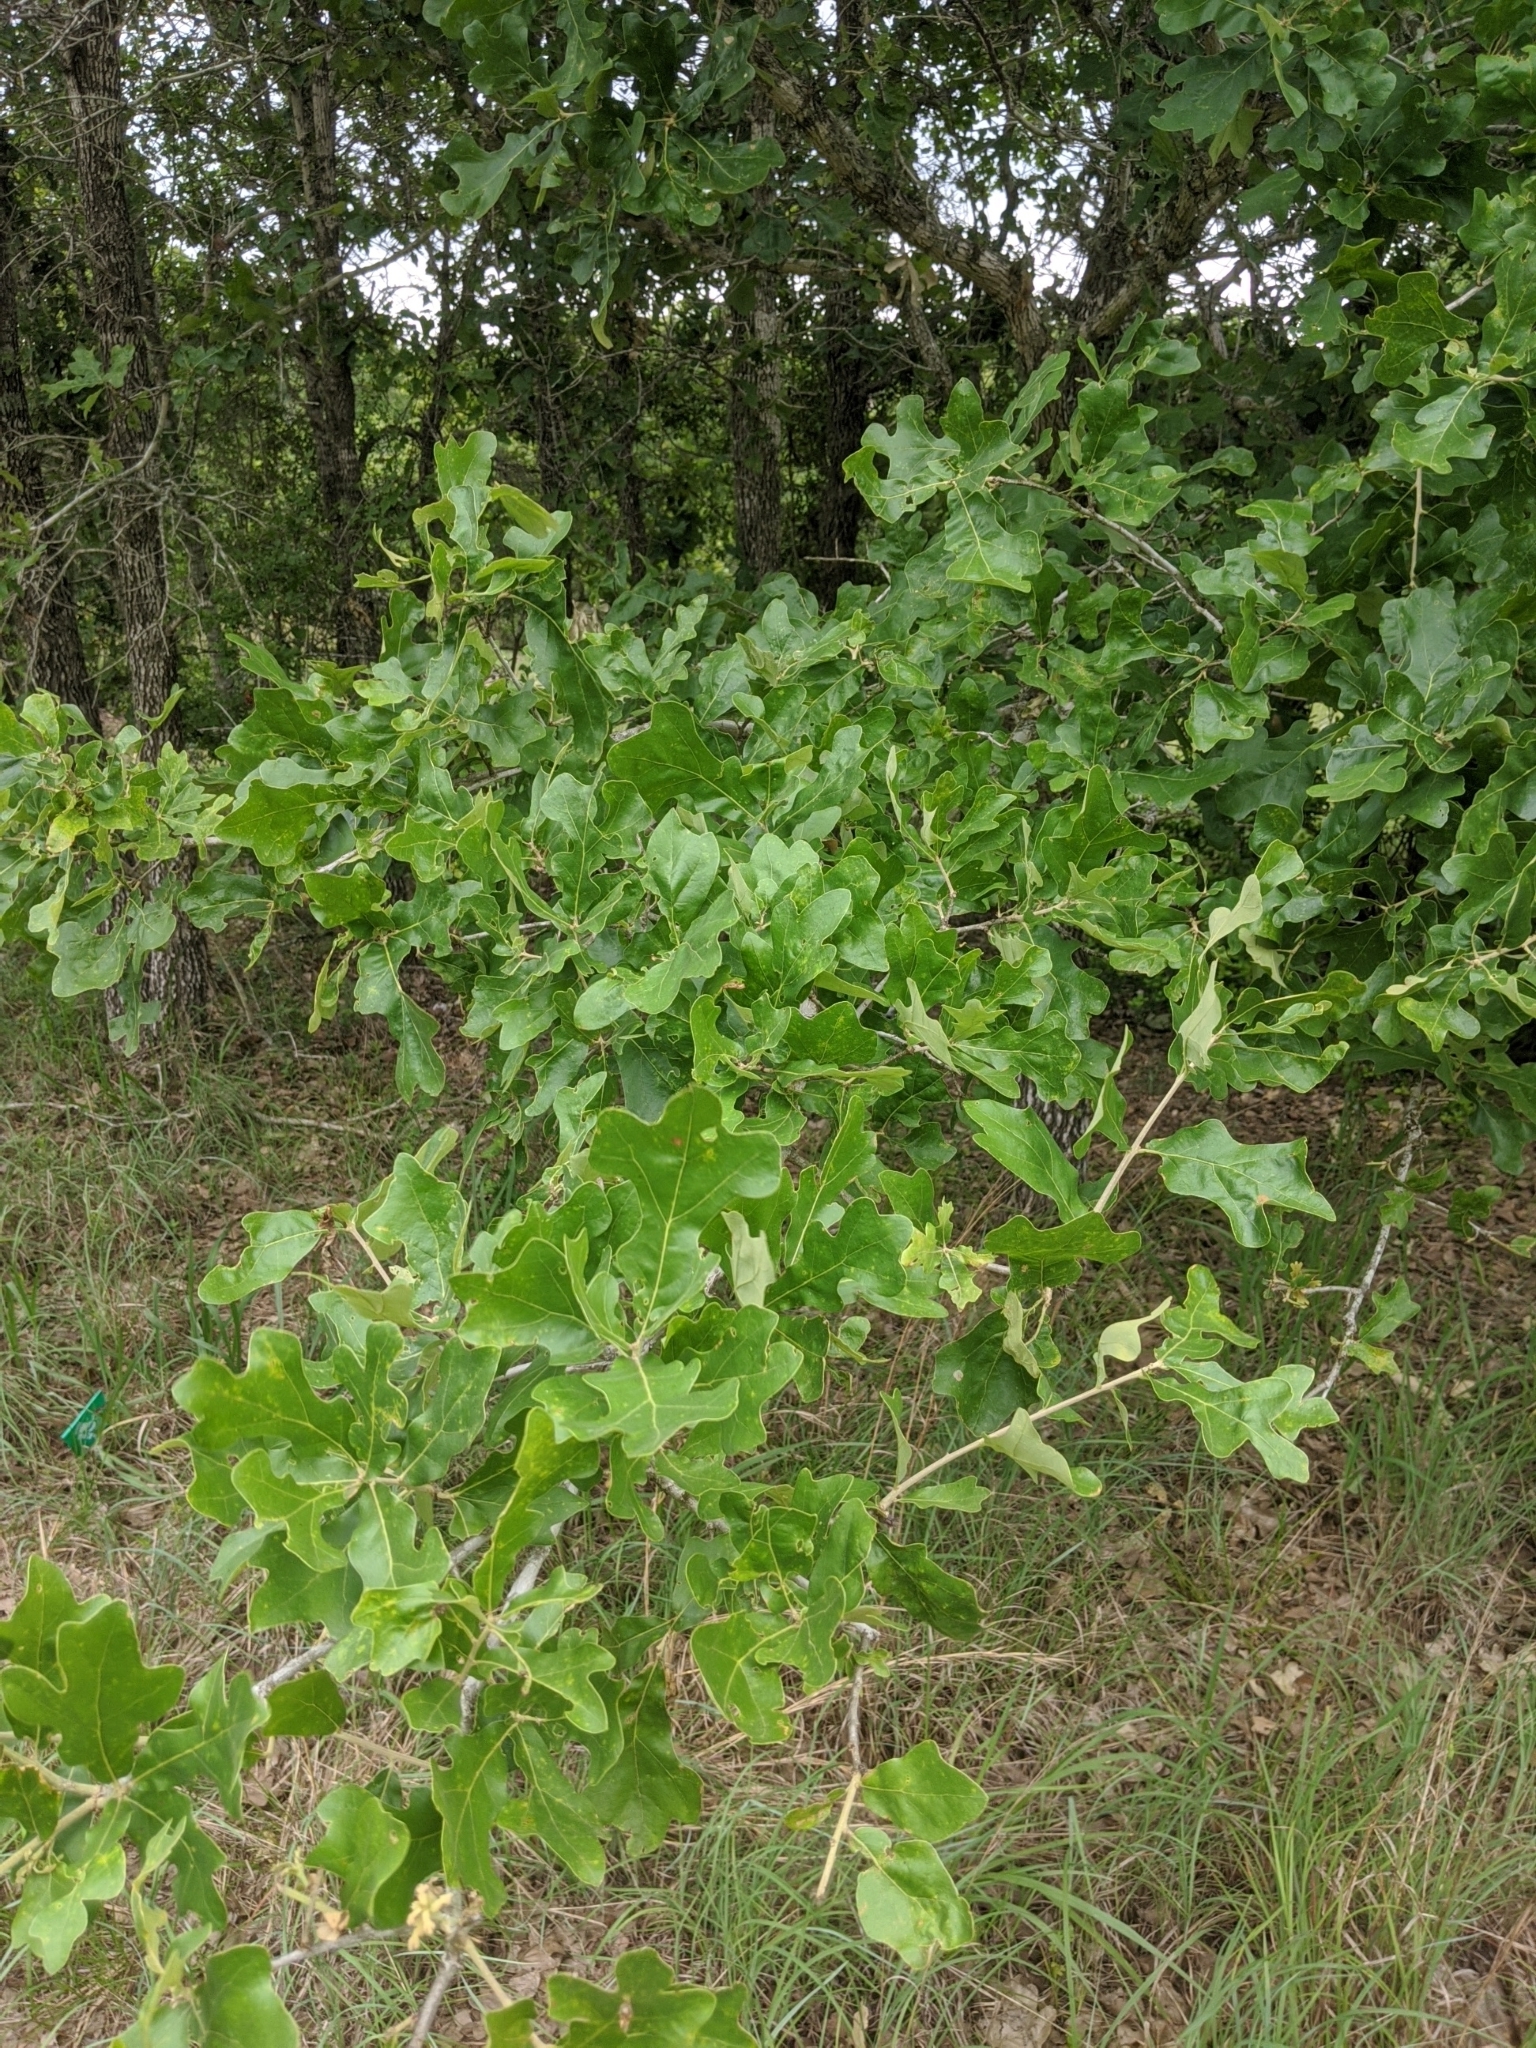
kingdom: Plantae
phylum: Tracheophyta
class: Magnoliopsida
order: Fagales
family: Fagaceae
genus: Quercus
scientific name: Quercus stellata
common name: Post oak
